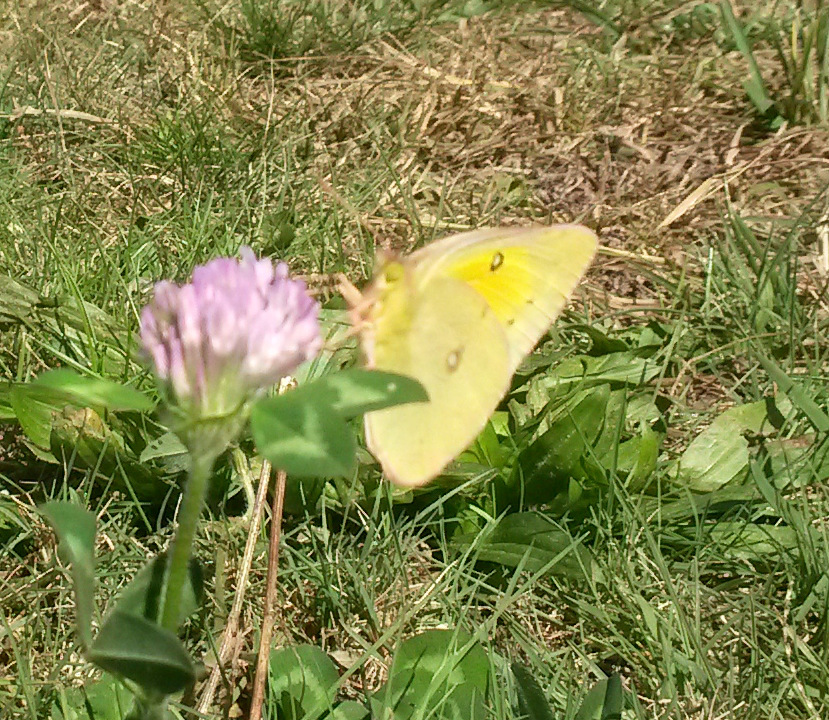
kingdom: Animalia
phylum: Arthropoda
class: Insecta
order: Lepidoptera
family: Pieridae
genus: Colias
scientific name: Colias eurytheme
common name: Alfalfa butterfly
